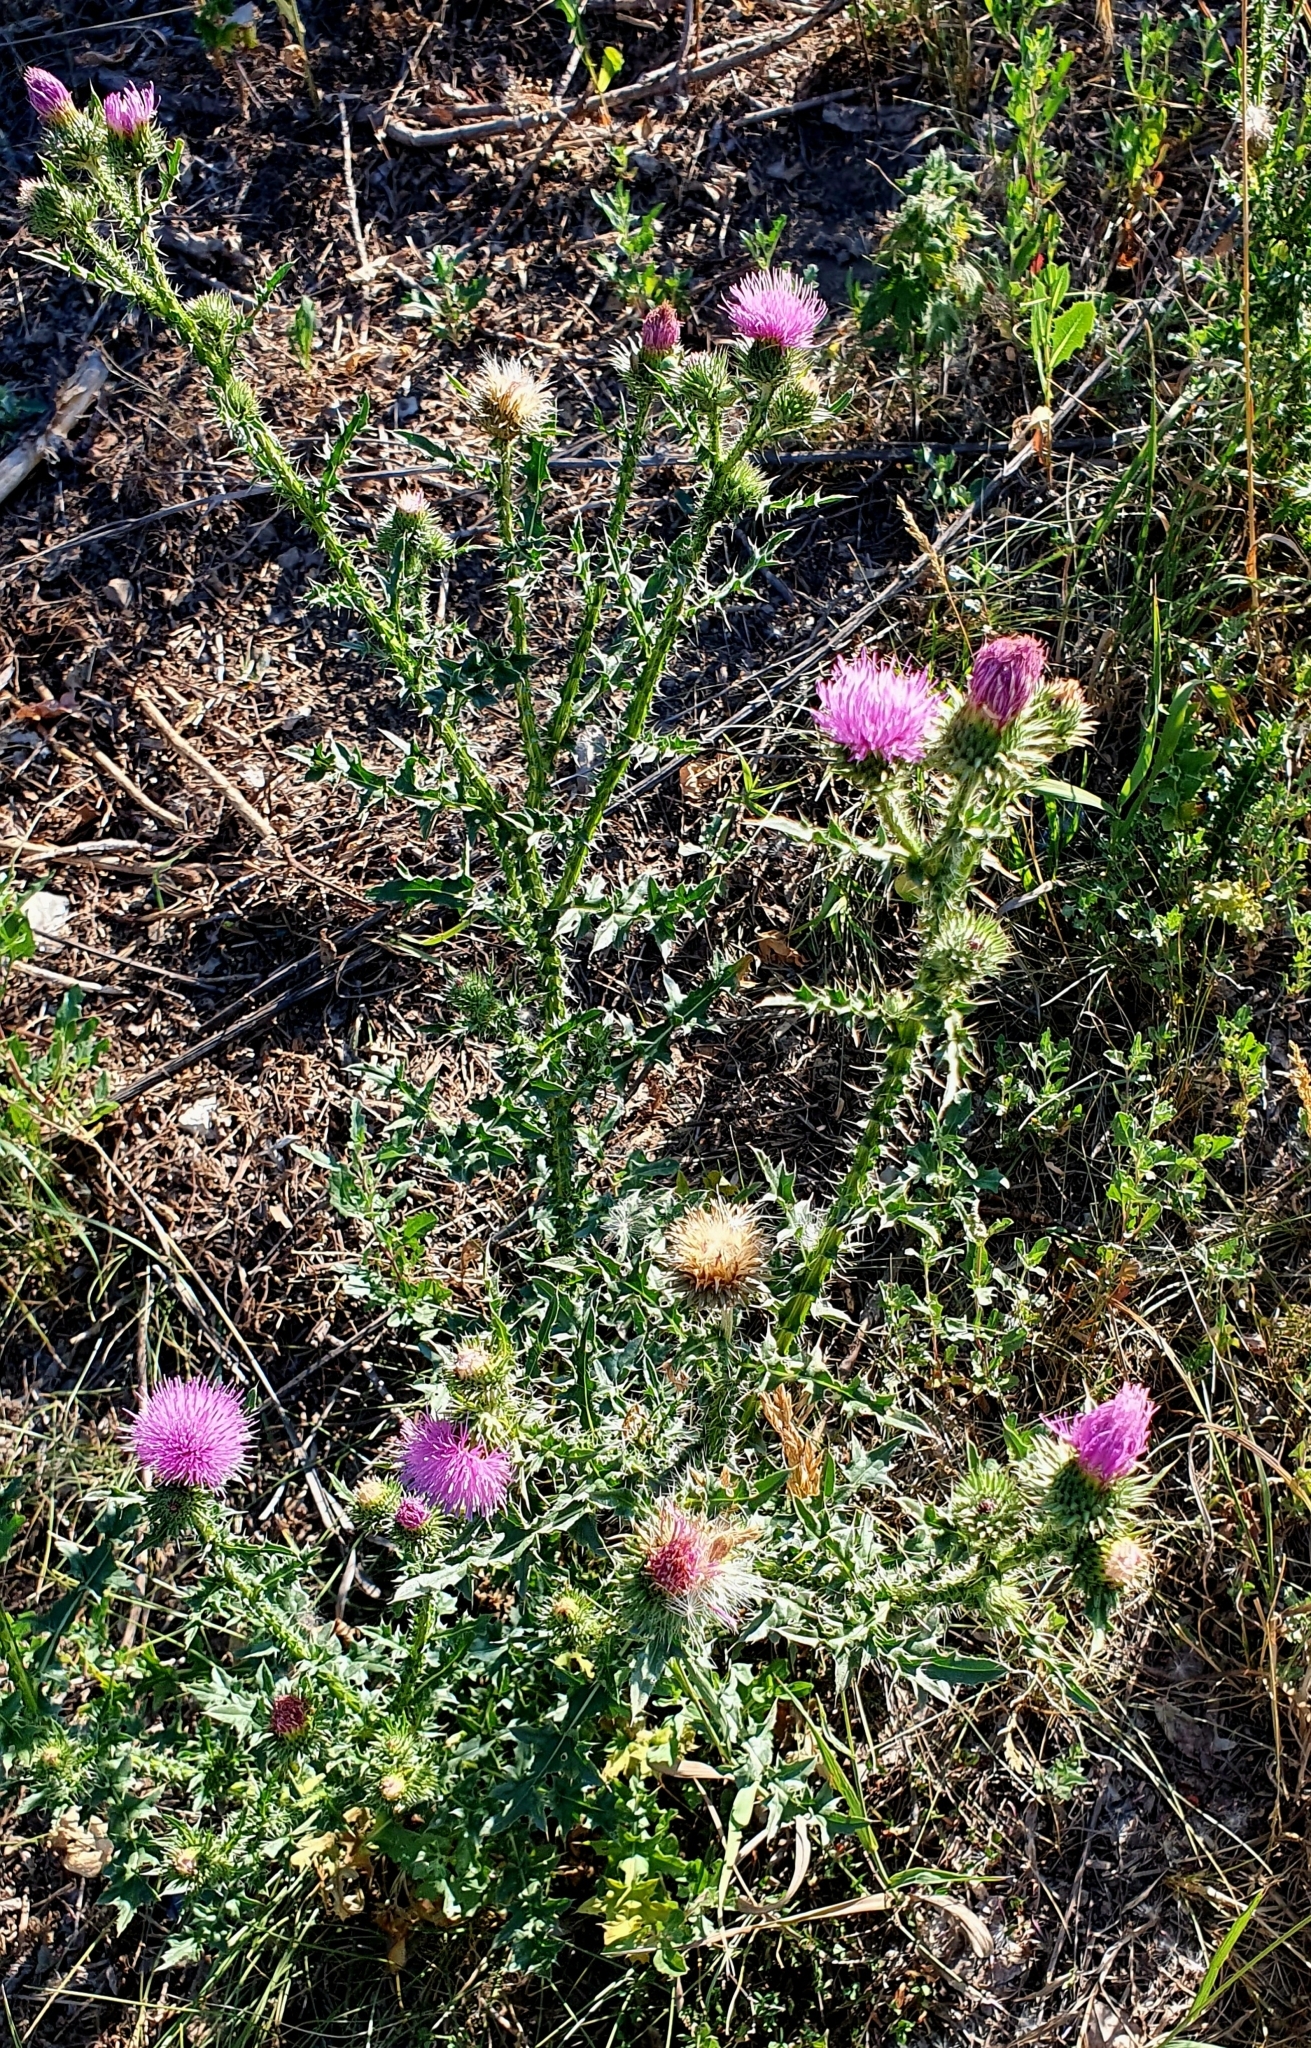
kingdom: Plantae
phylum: Tracheophyta
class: Magnoliopsida
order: Asterales
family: Asteraceae
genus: Carduus
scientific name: Carduus acanthoides
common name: Plumeless thistle
